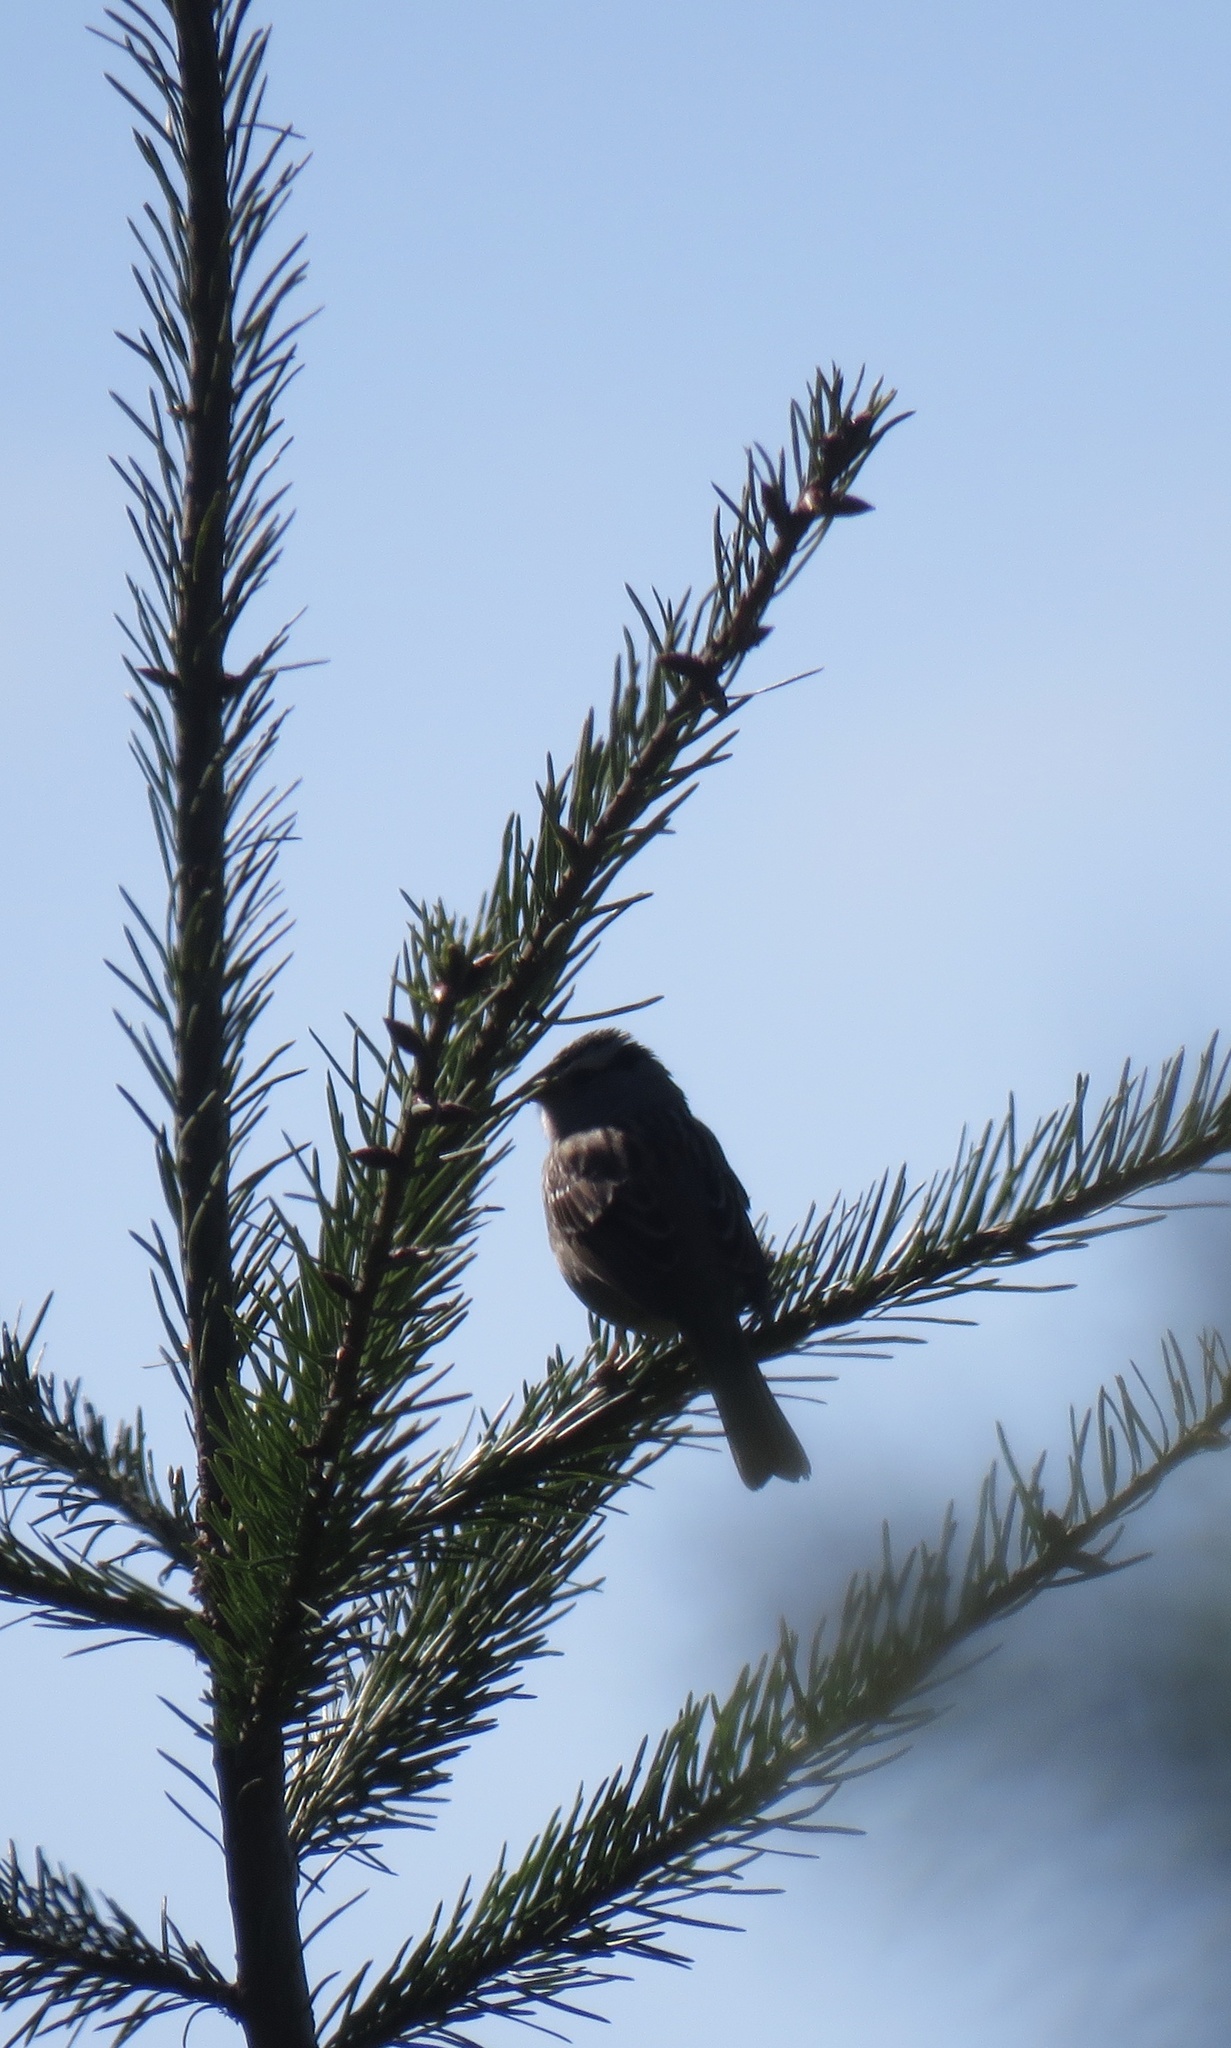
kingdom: Animalia
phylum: Chordata
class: Aves
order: Passeriformes
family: Passerellidae
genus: Zonotrichia
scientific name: Zonotrichia leucophrys
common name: White-crowned sparrow
